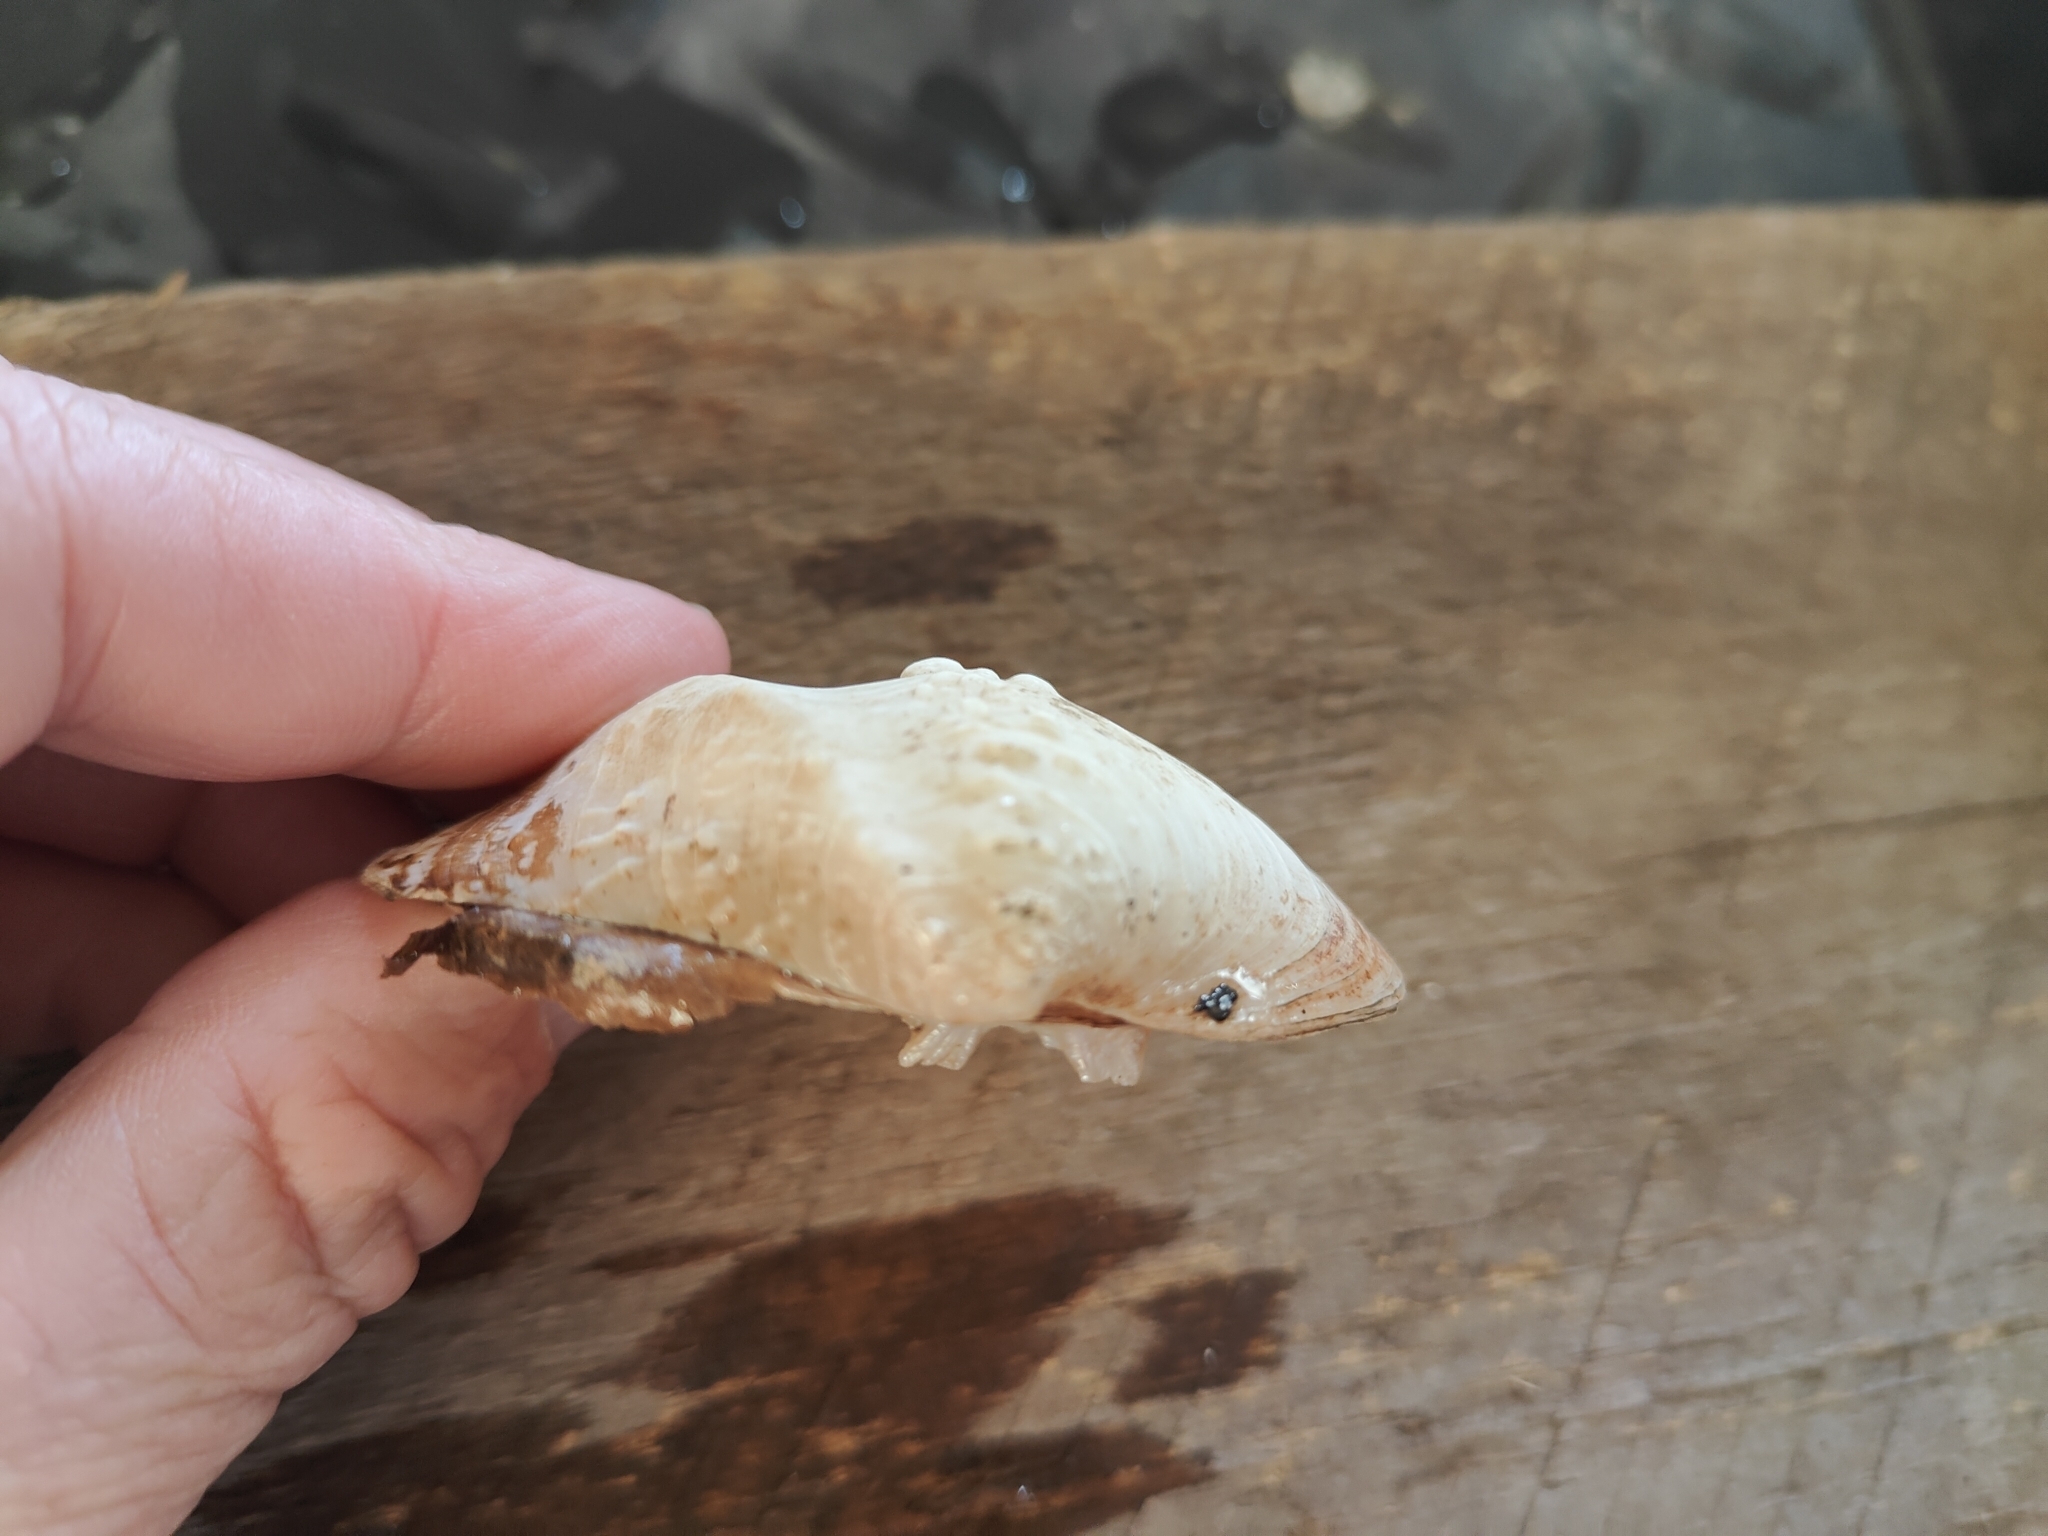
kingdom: Animalia
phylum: Mollusca
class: Bivalvia
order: Unionida
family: Unionidae
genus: Quadrula
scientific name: Quadrula quadrula
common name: Mapleleaf
